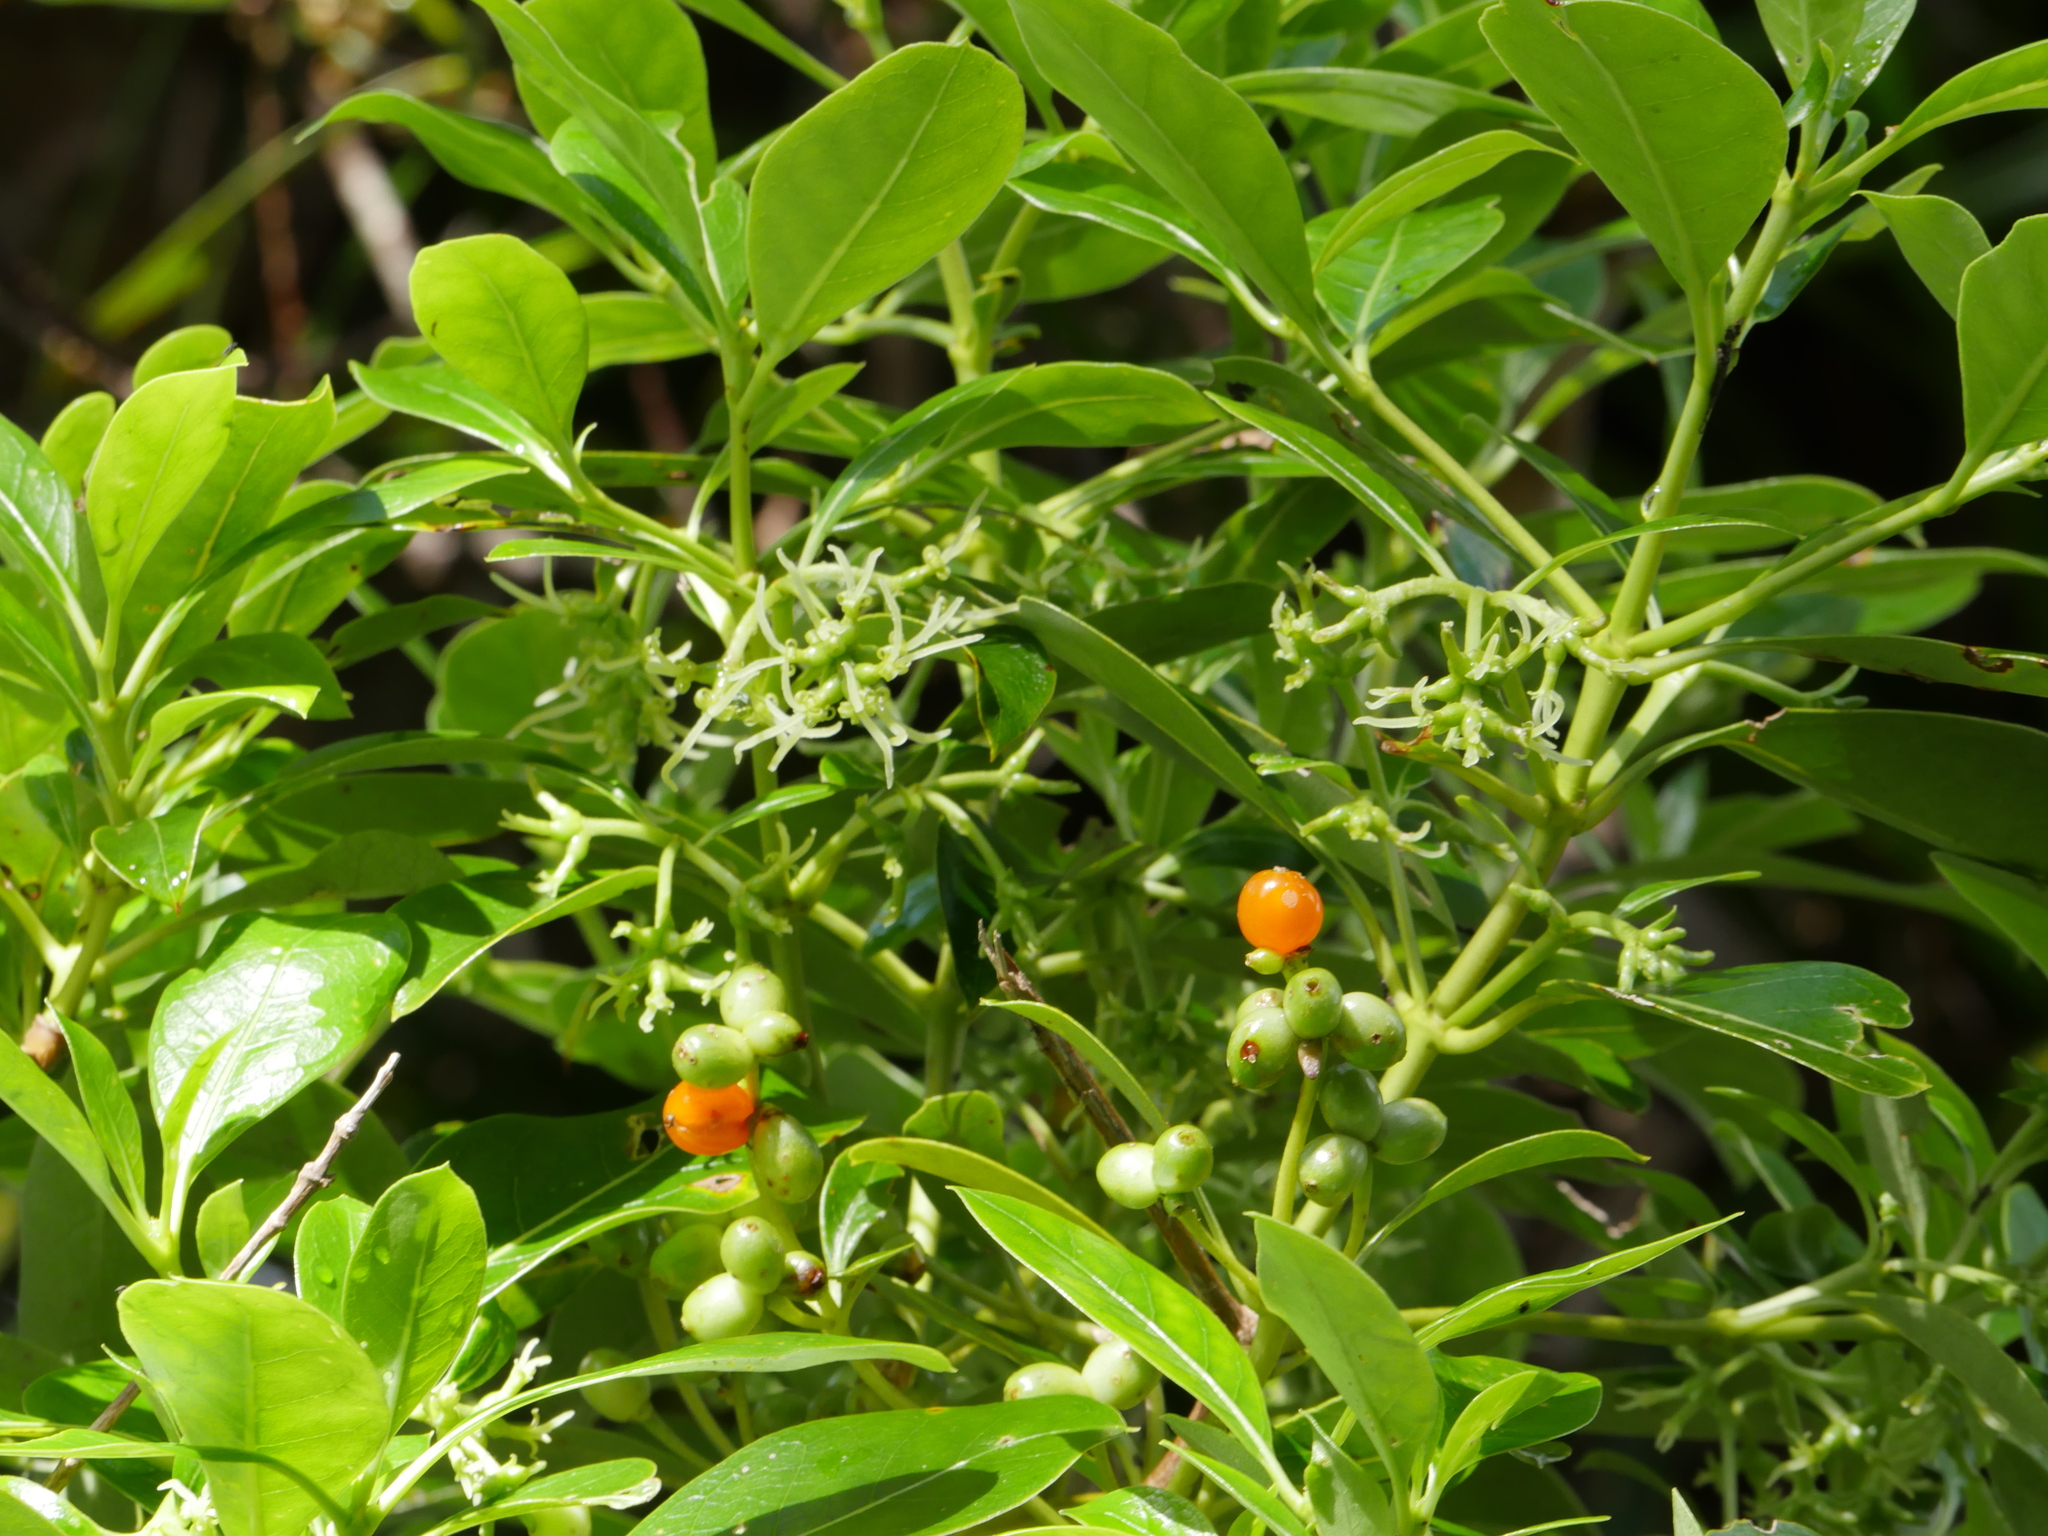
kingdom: Plantae
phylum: Tracheophyta
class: Magnoliopsida
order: Gentianales
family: Rubiaceae
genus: Coprosma
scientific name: Coprosma lucida
